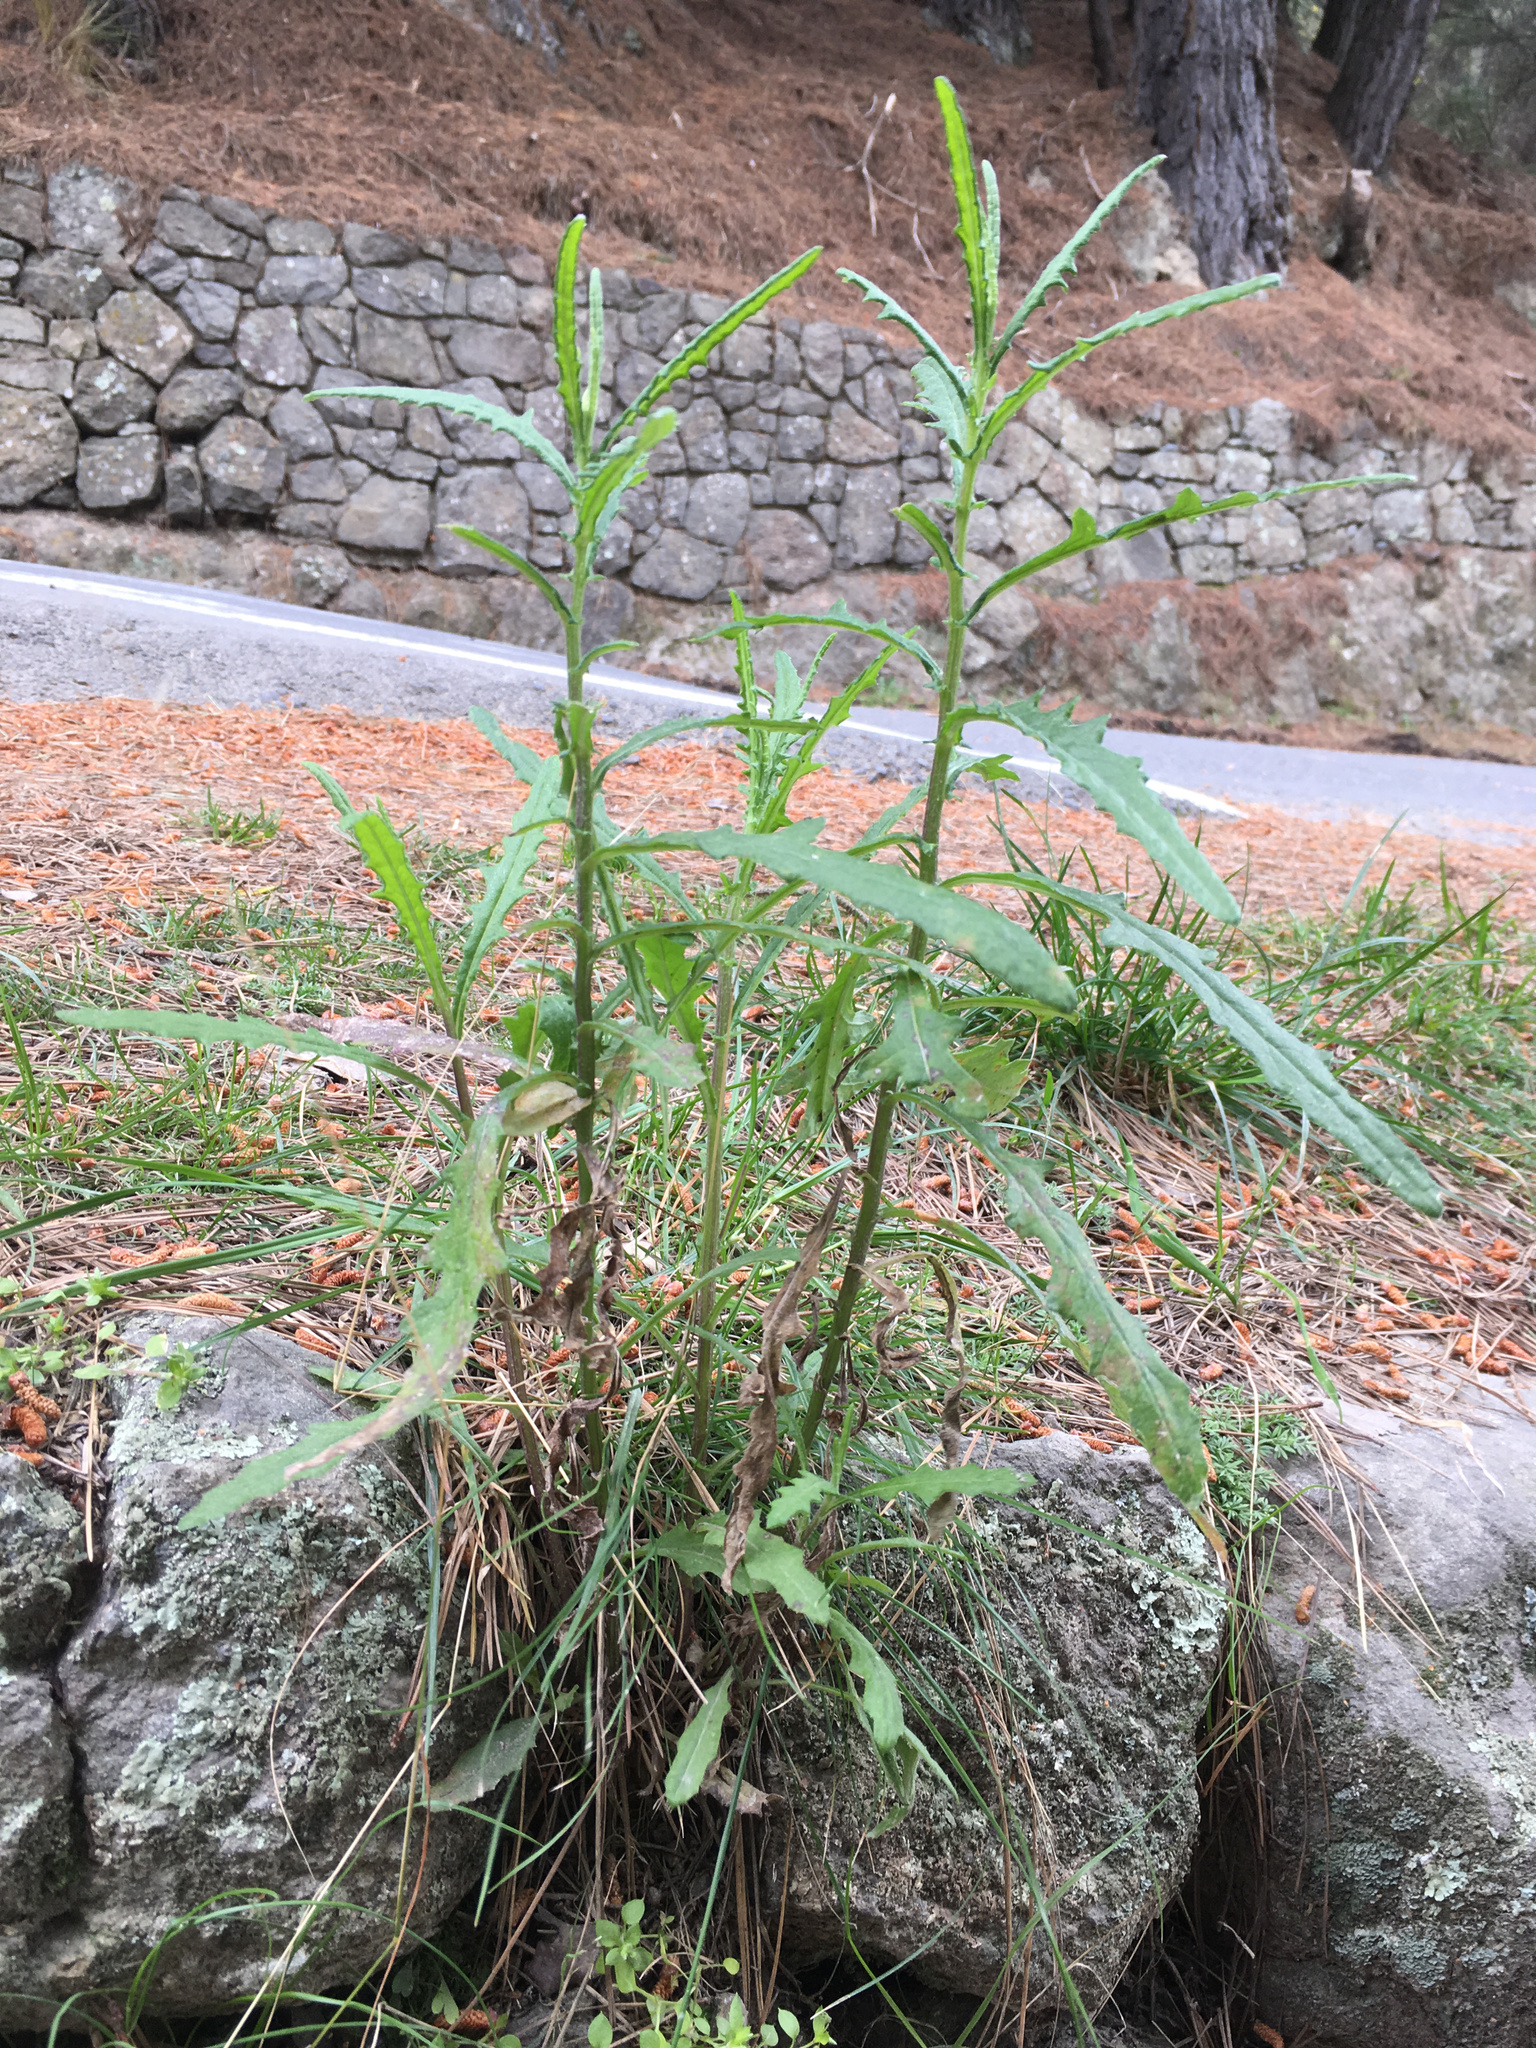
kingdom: Plantae
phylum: Tracheophyta
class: Magnoliopsida
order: Asterales
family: Asteraceae
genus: Senecio
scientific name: Senecio hispidulus
